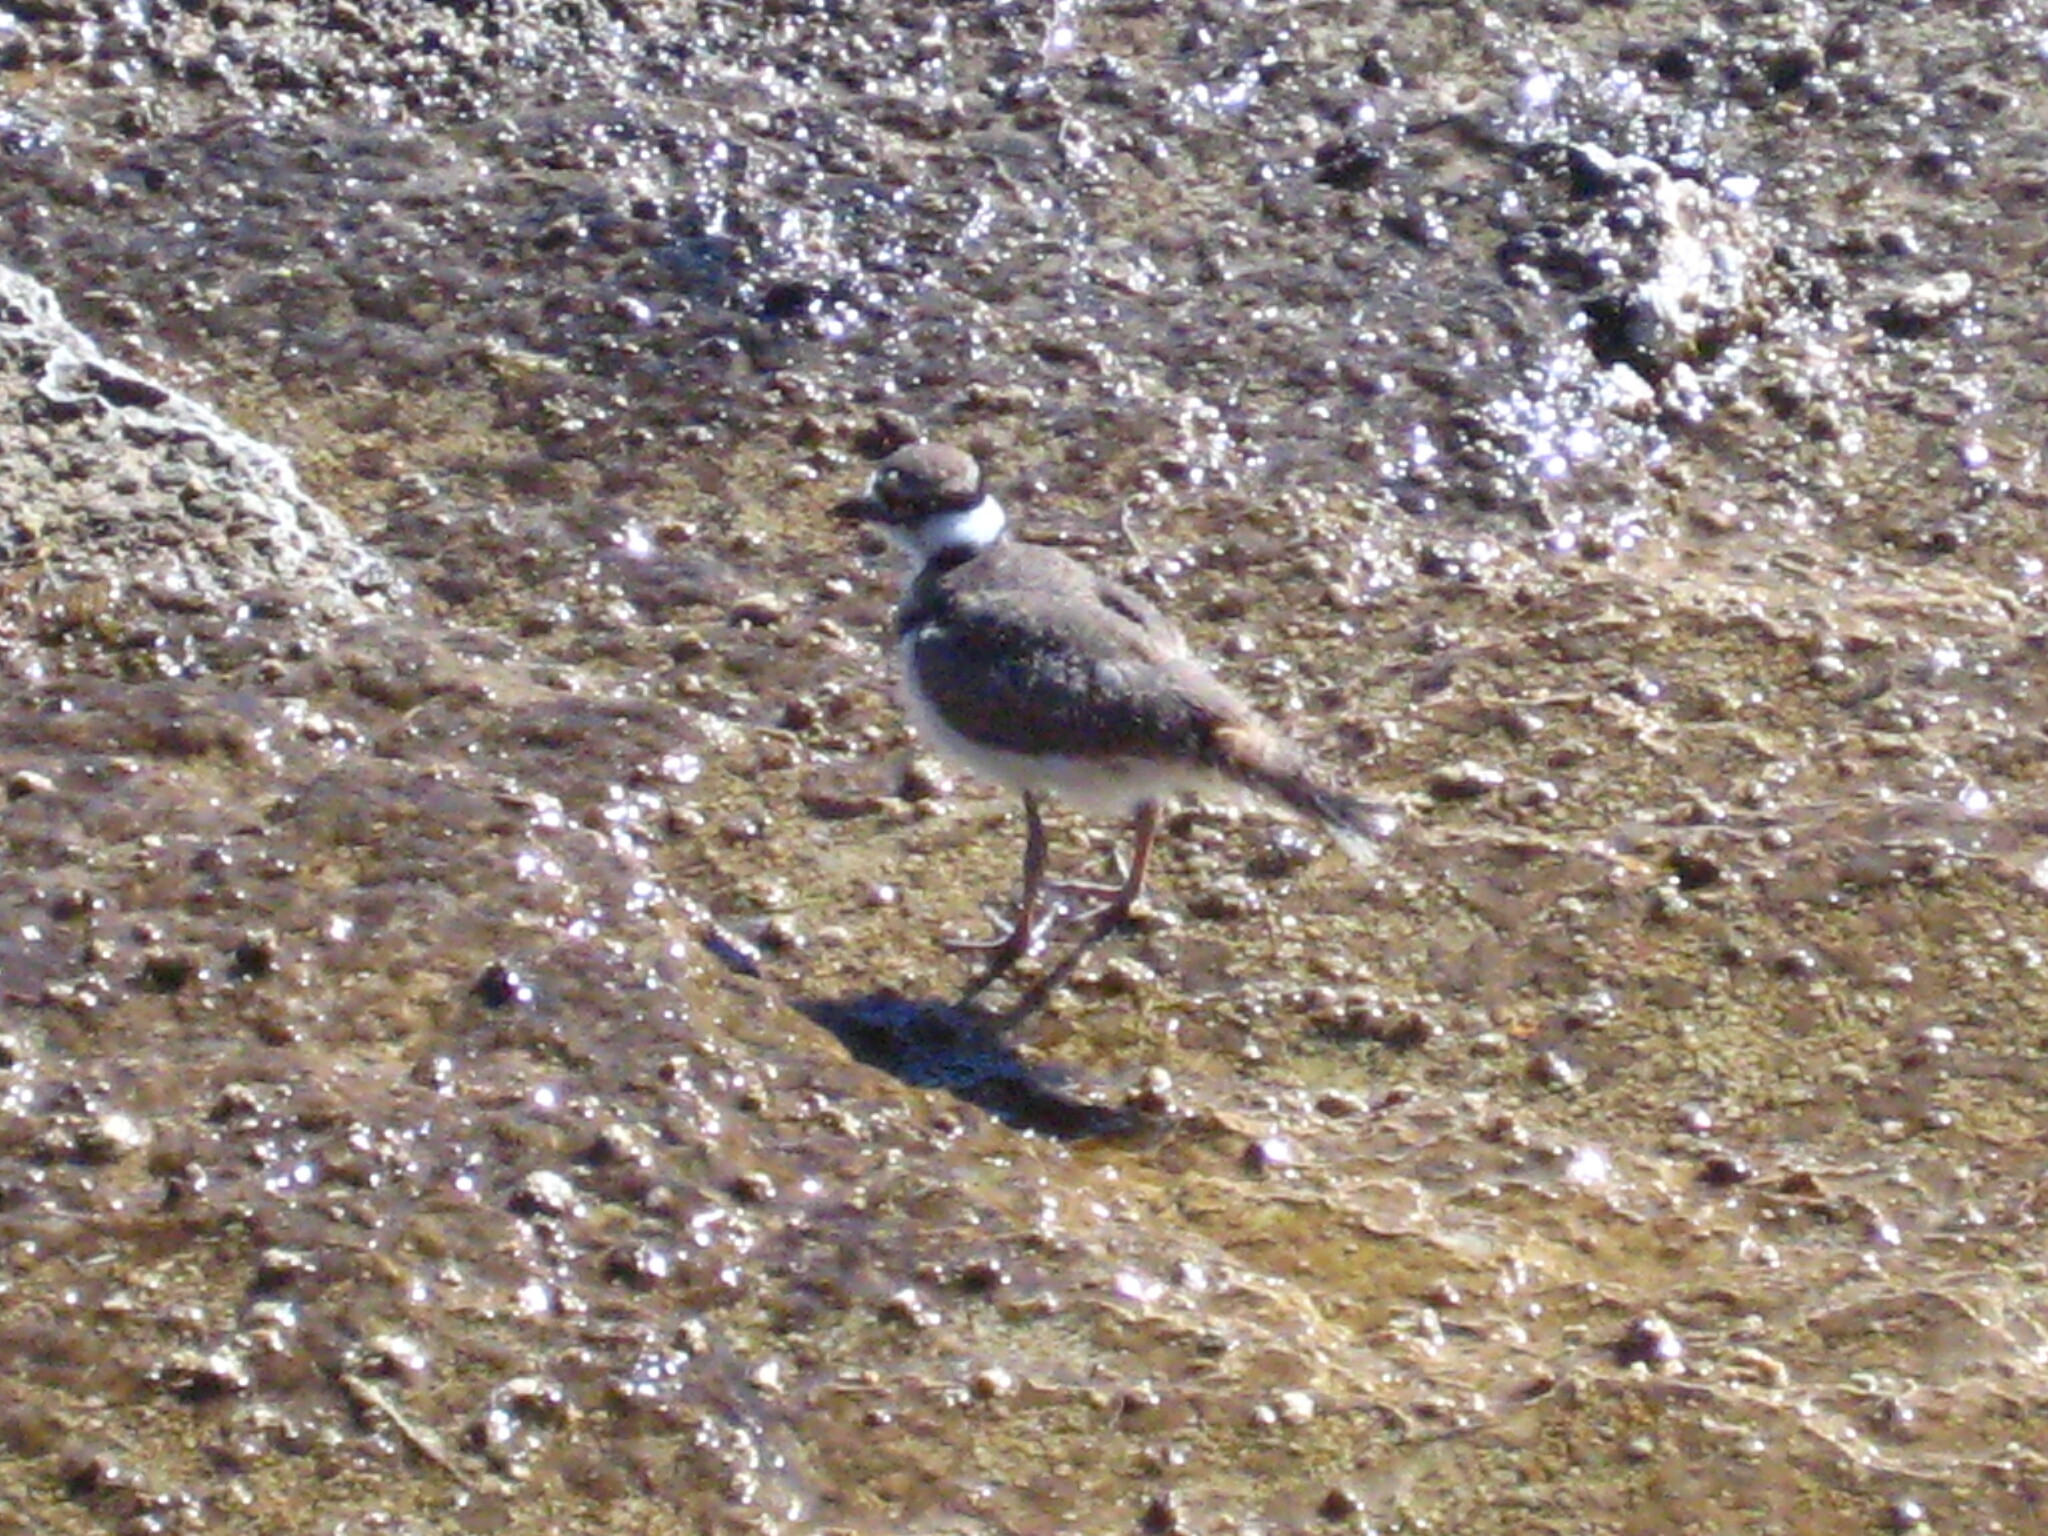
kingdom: Animalia
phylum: Chordata
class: Aves
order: Charadriiformes
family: Charadriidae
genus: Charadrius
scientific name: Charadrius vociferus
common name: Killdeer
